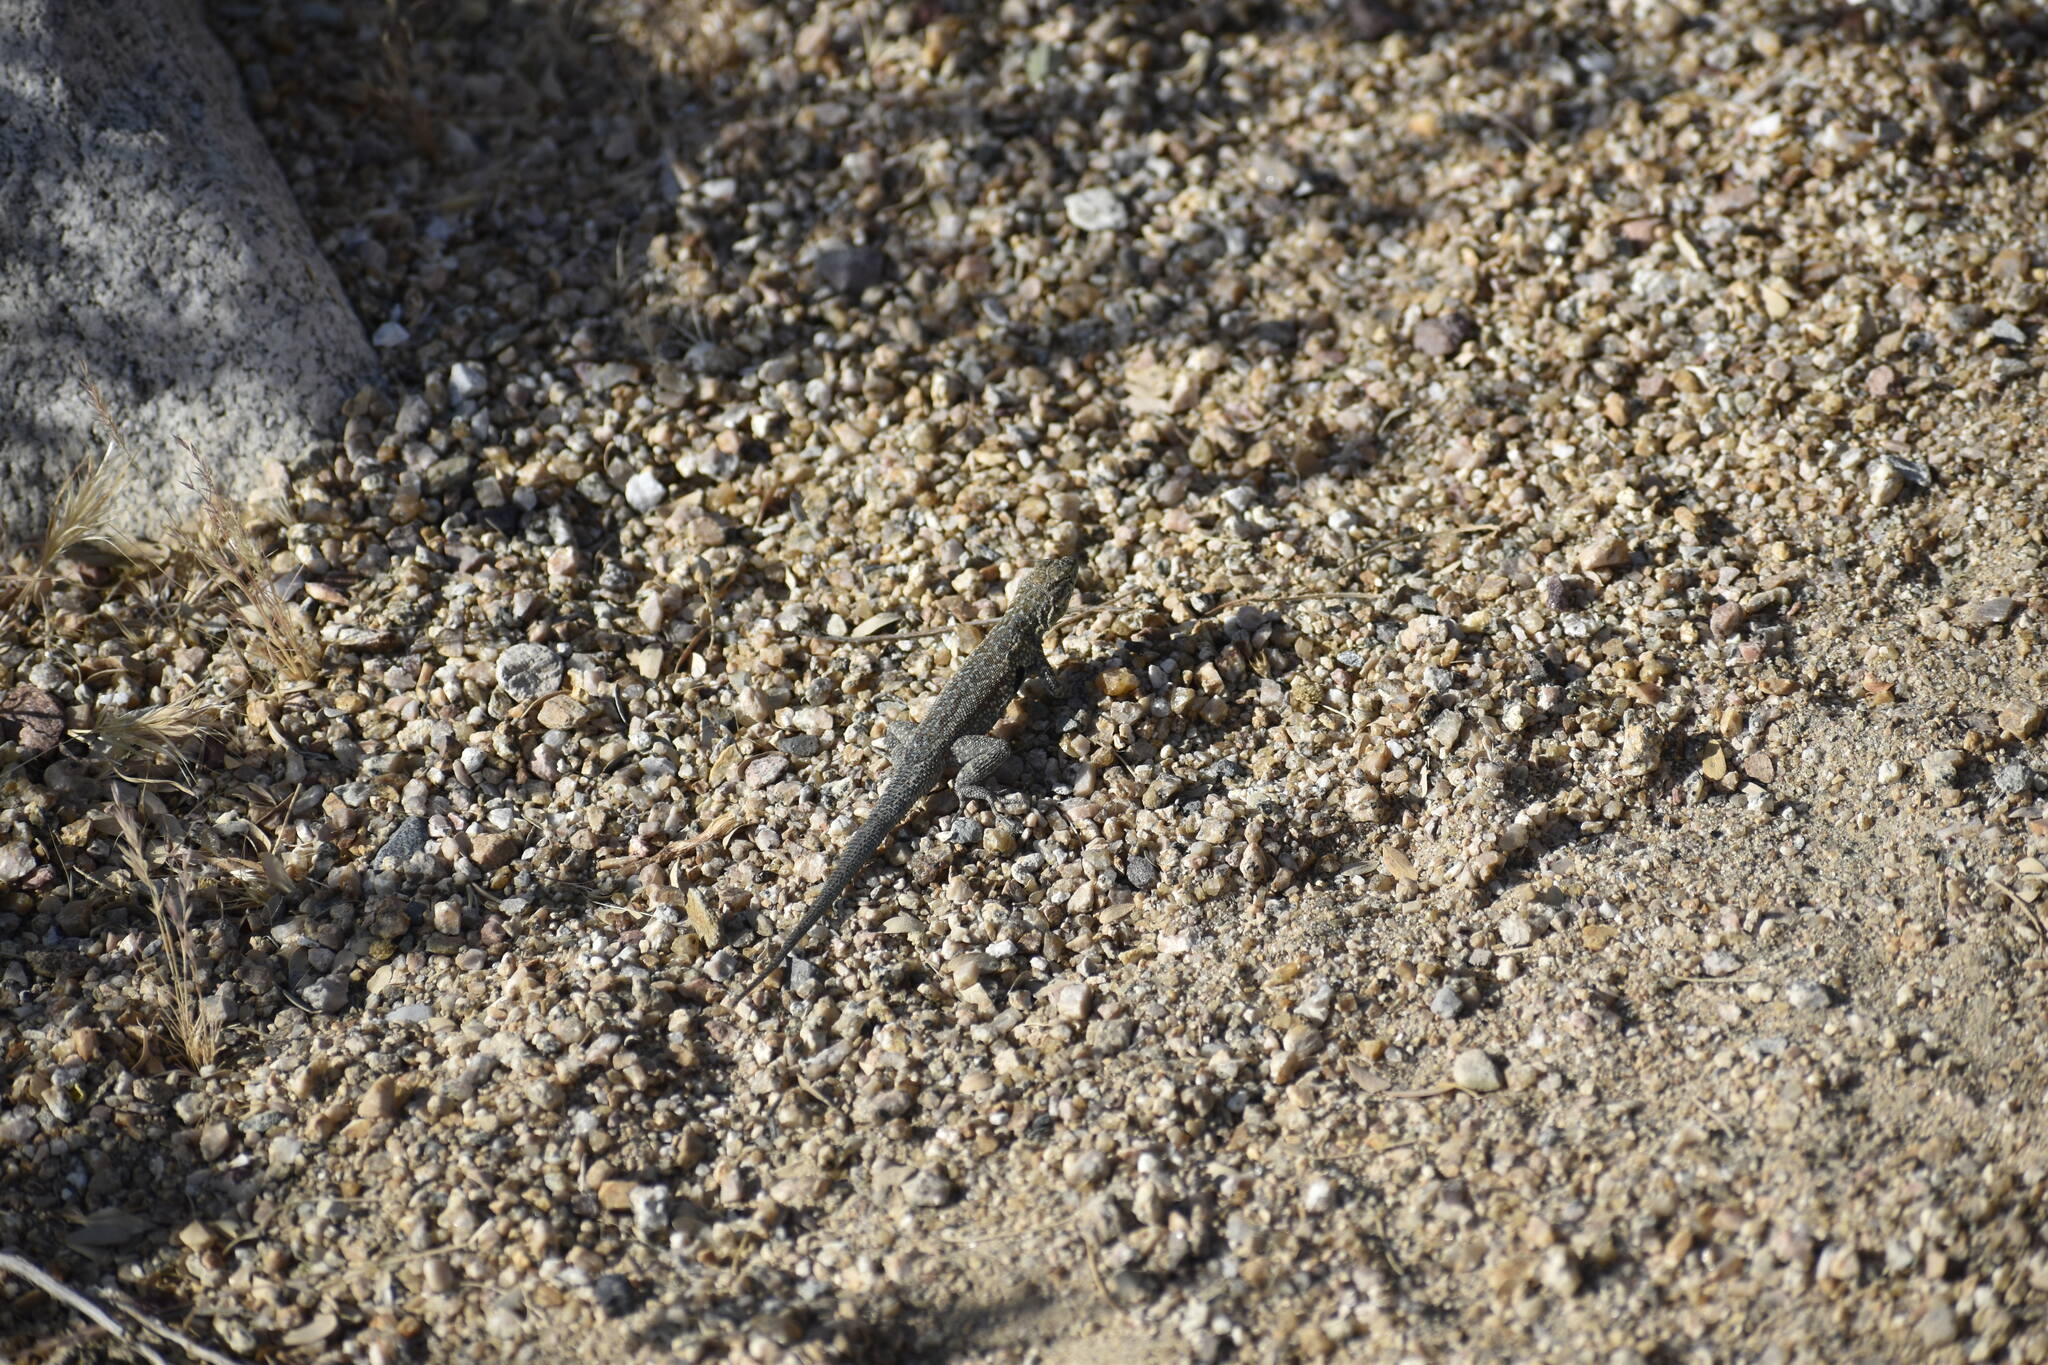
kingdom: Animalia
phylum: Chordata
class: Squamata
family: Phrynosomatidae
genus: Uta
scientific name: Uta stansburiana
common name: Side-blotched lizard
